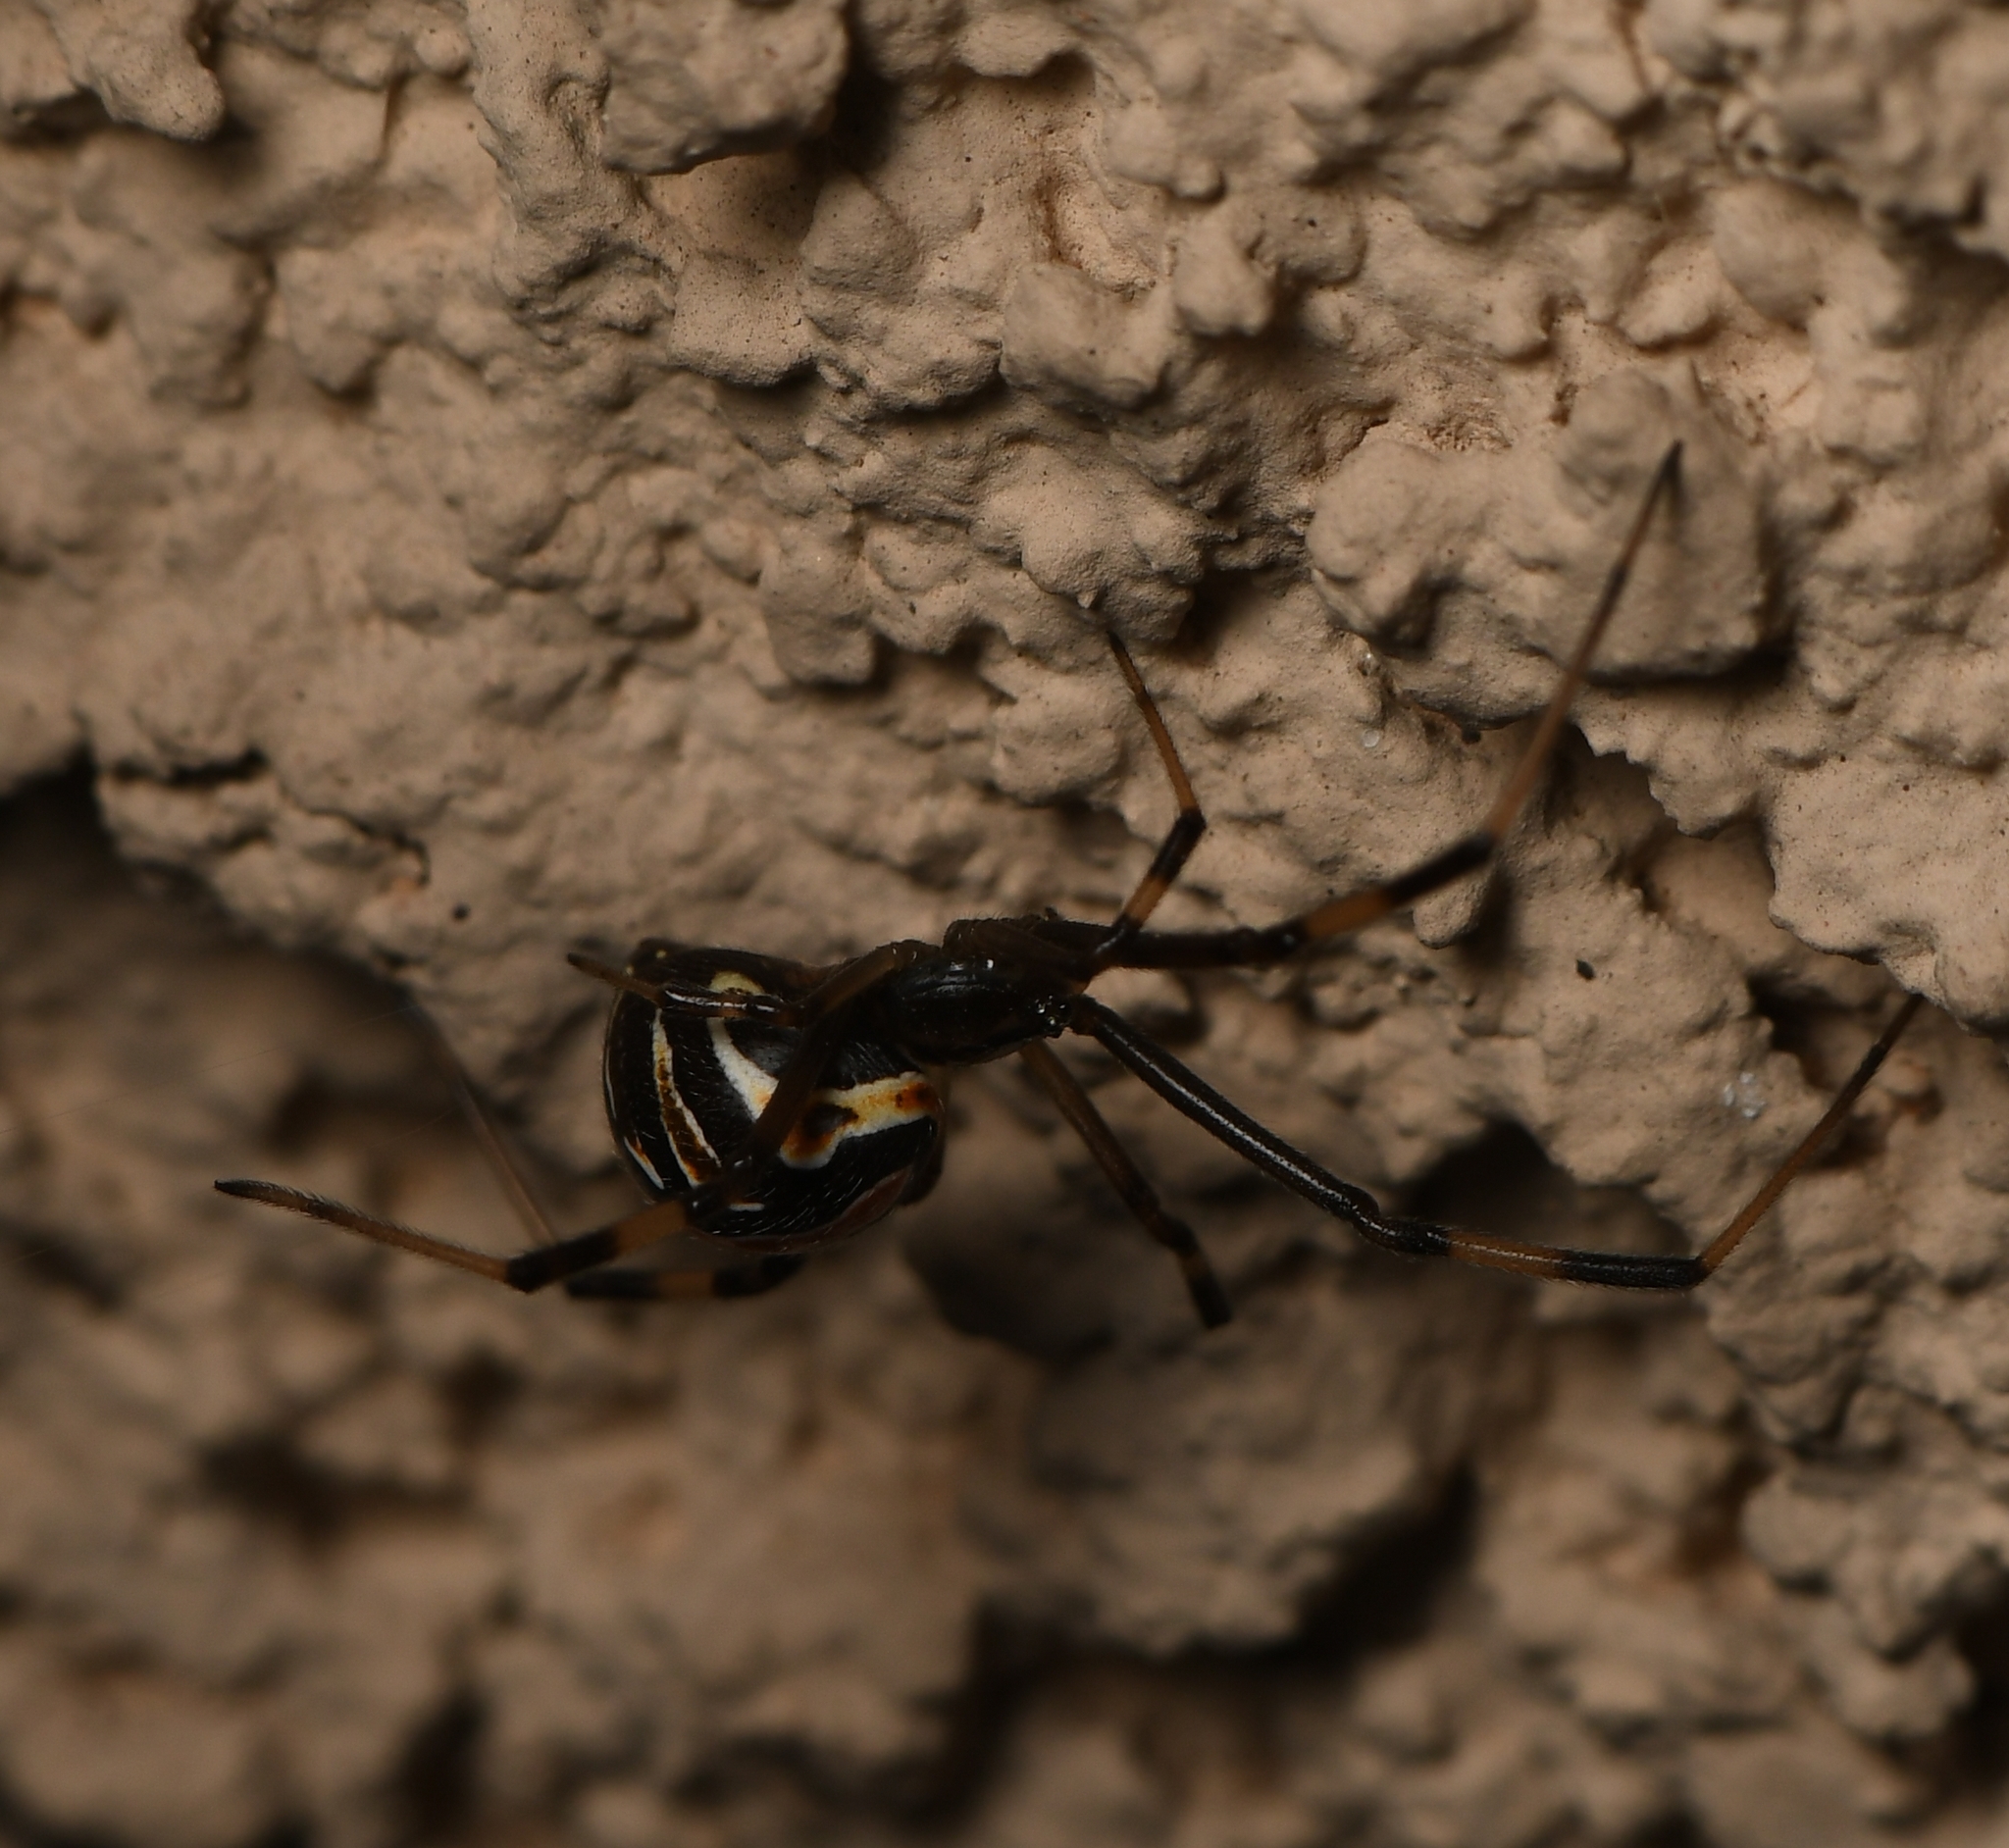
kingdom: Animalia
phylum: Arthropoda
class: Arachnida
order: Araneae
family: Theridiidae
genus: Latrodectus
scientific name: Latrodectus hesperus
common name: Western black widow
